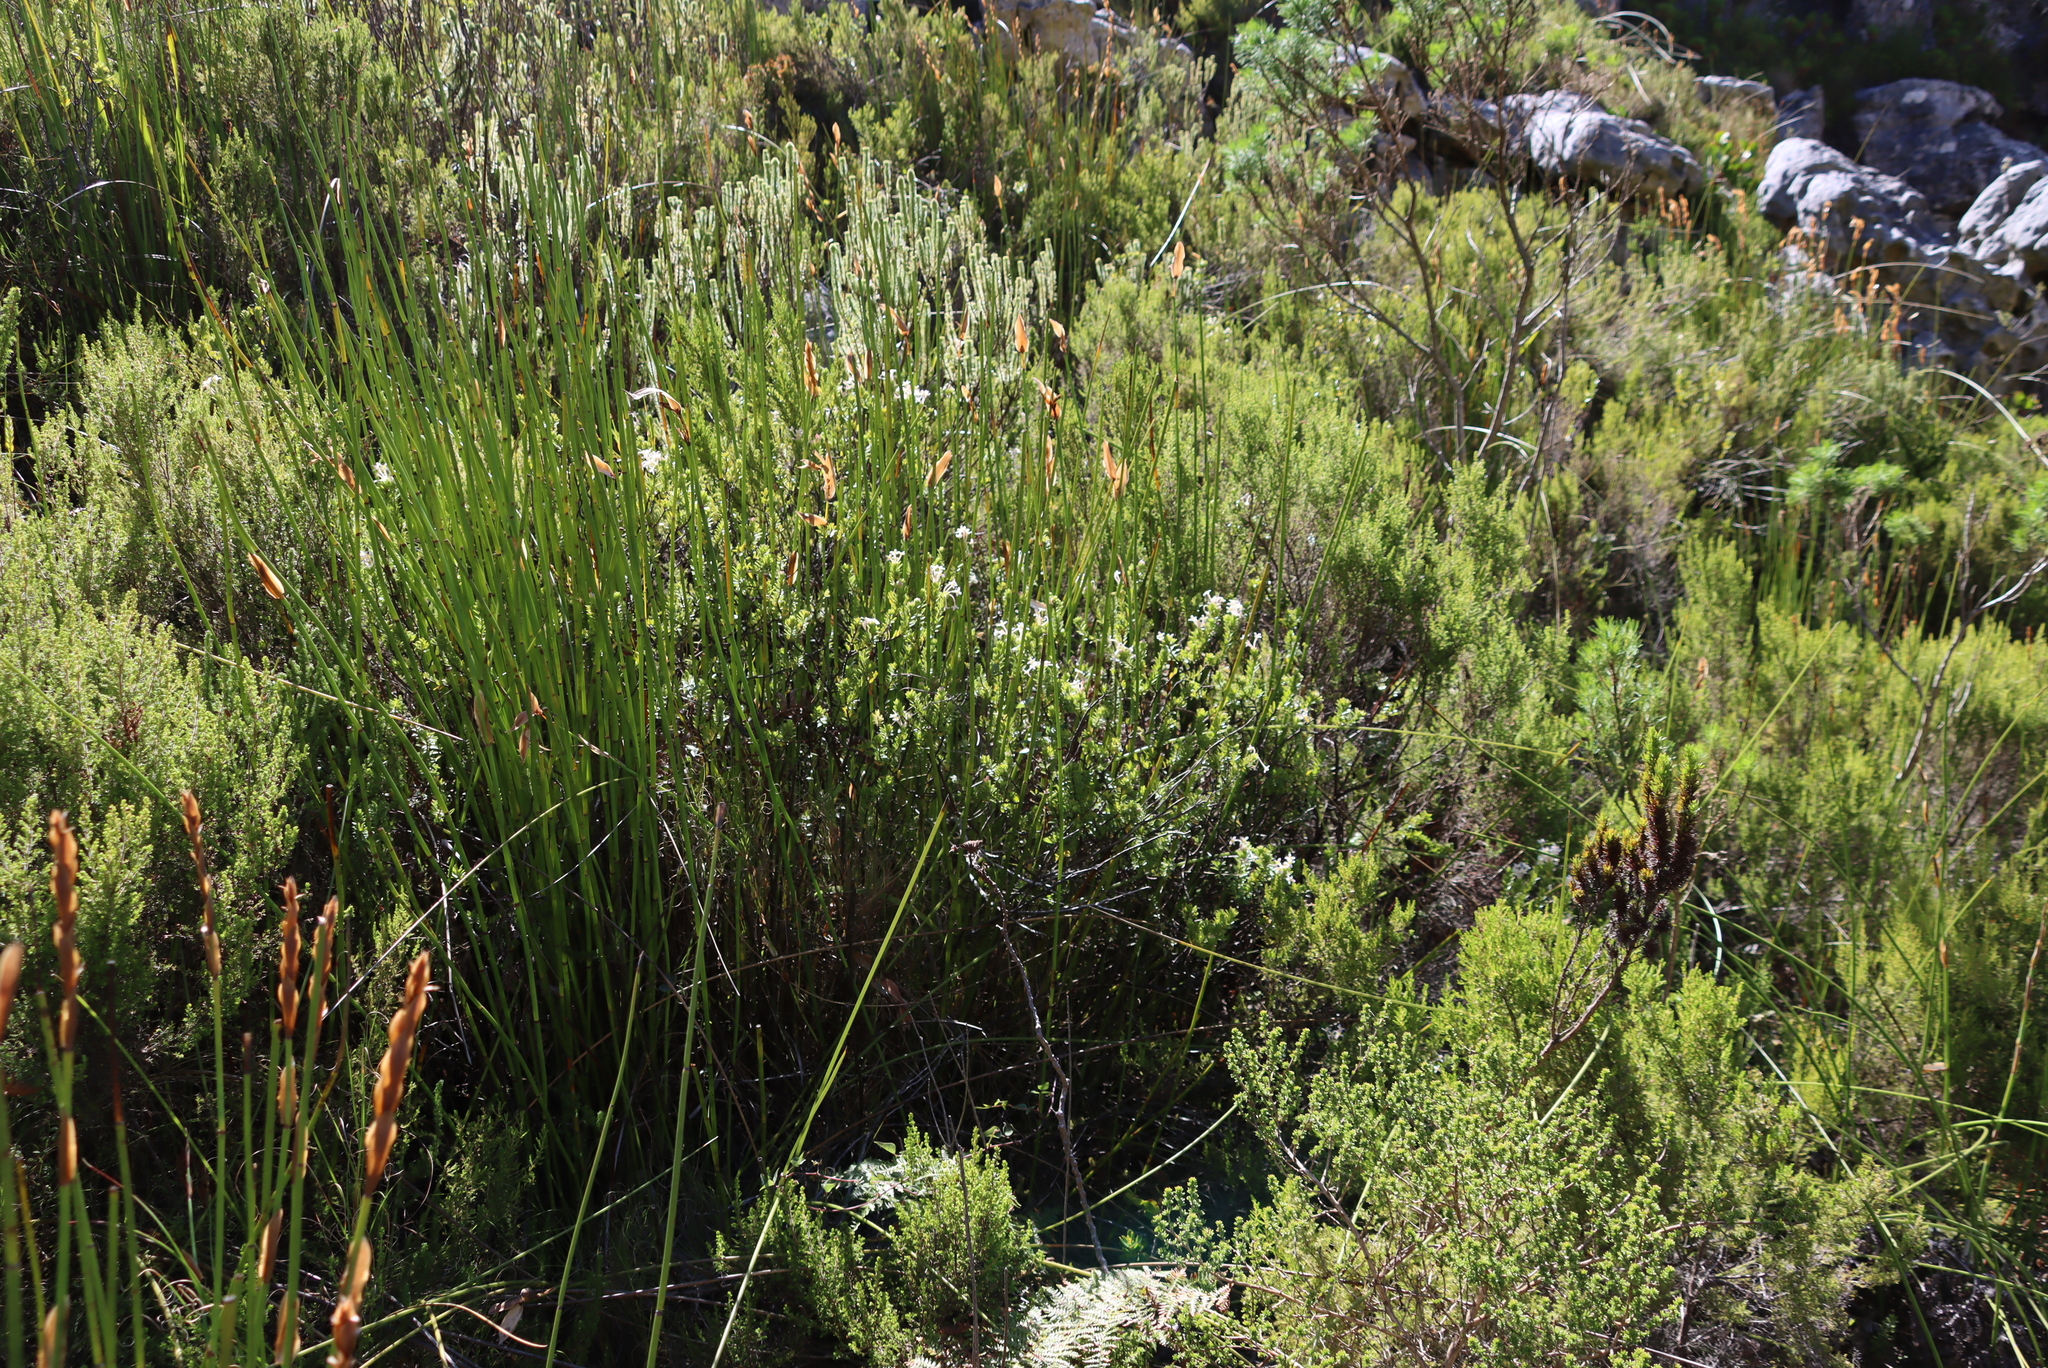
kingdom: Plantae
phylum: Tracheophyta
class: Magnoliopsida
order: Malvales
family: Thymelaeaceae
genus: Gnidia
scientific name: Gnidia tomentosa
